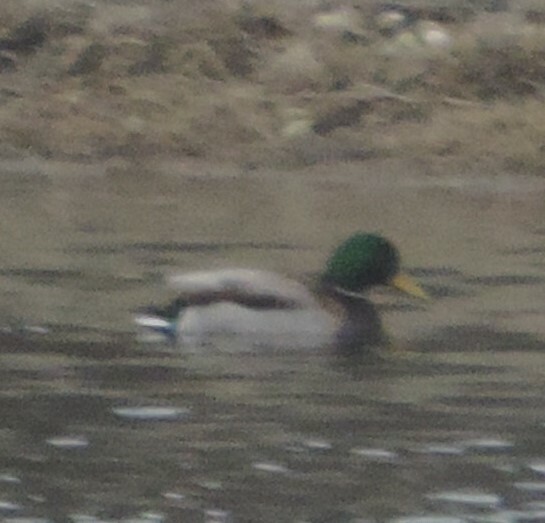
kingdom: Animalia
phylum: Chordata
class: Aves
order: Anseriformes
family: Anatidae
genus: Anas
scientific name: Anas platyrhynchos
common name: Mallard
